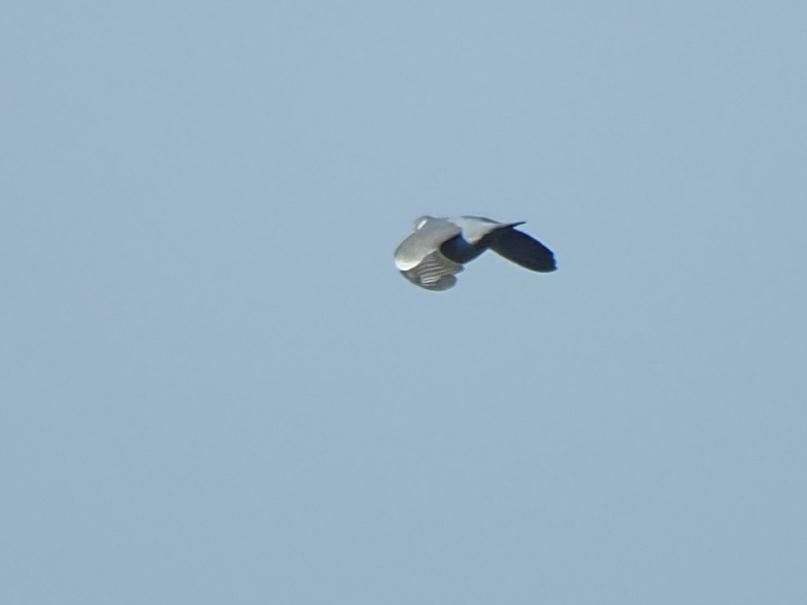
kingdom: Animalia
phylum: Chordata
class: Aves
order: Columbiformes
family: Columbidae
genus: Columba
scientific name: Columba palumbus
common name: Common wood pigeon
